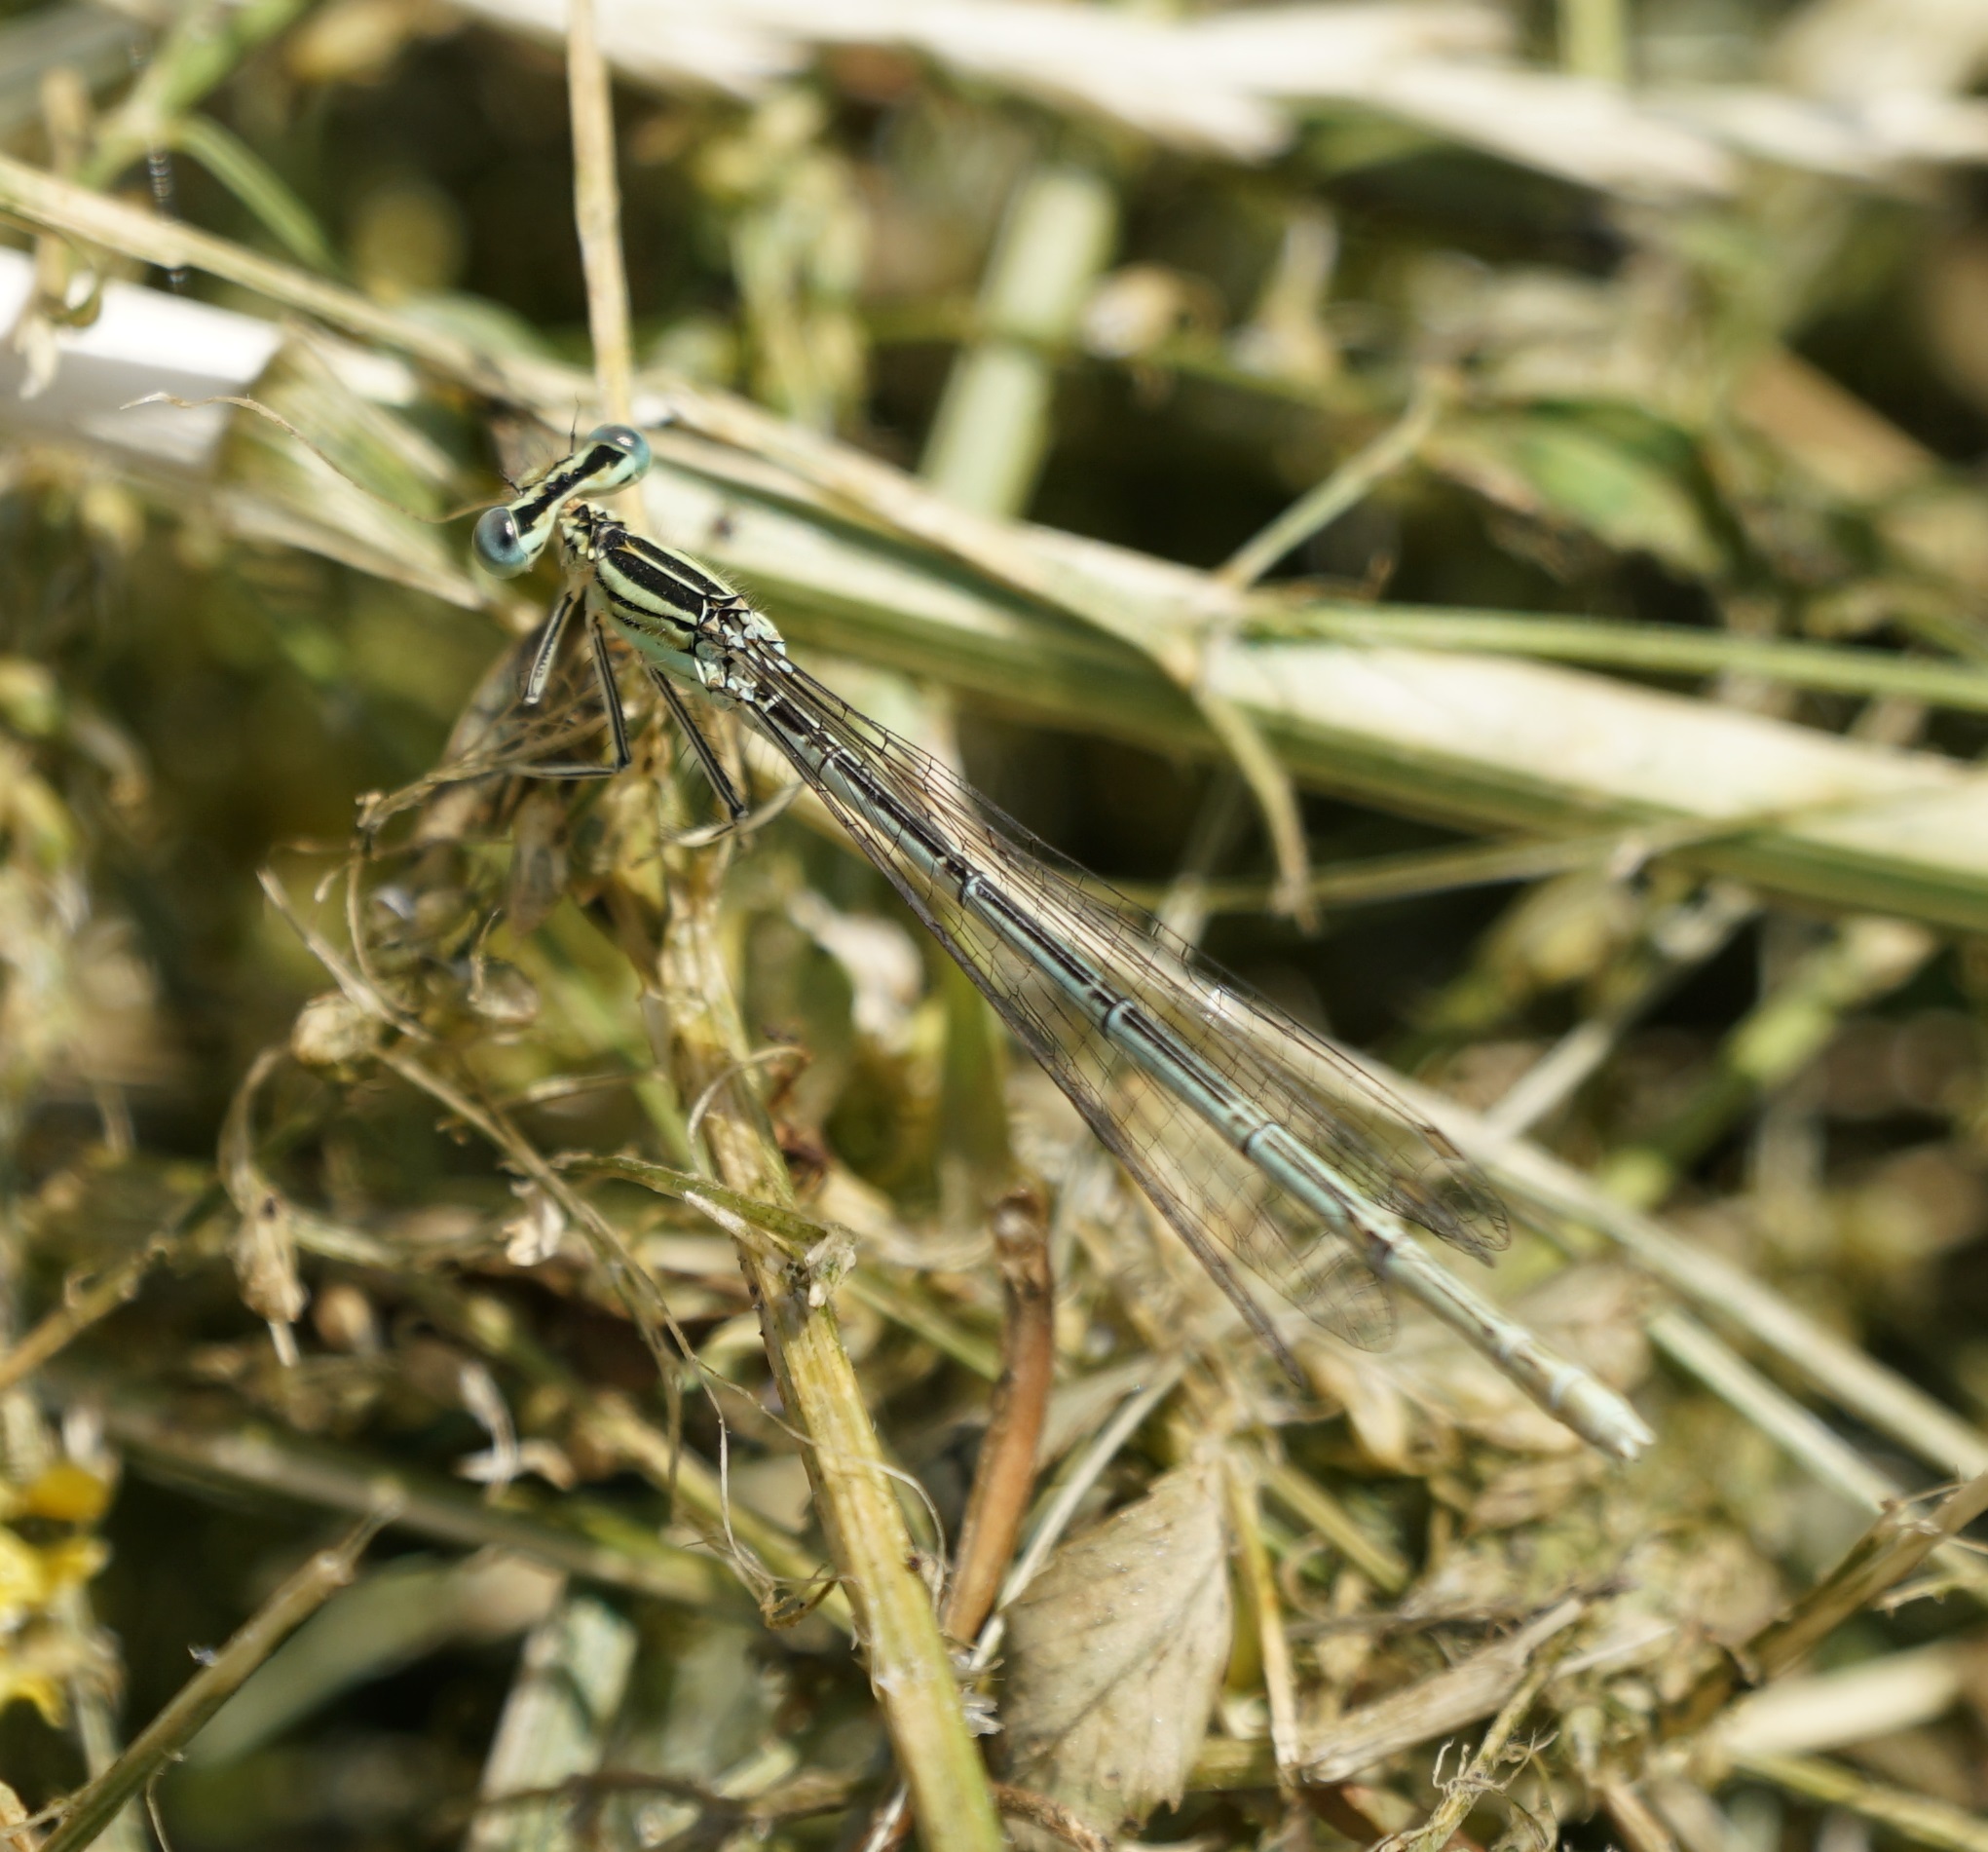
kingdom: Animalia
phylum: Arthropoda
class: Insecta
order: Odonata
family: Platycnemididae
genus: Platycnemis
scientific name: Platycnemis pennipes
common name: White-legged damselfly
